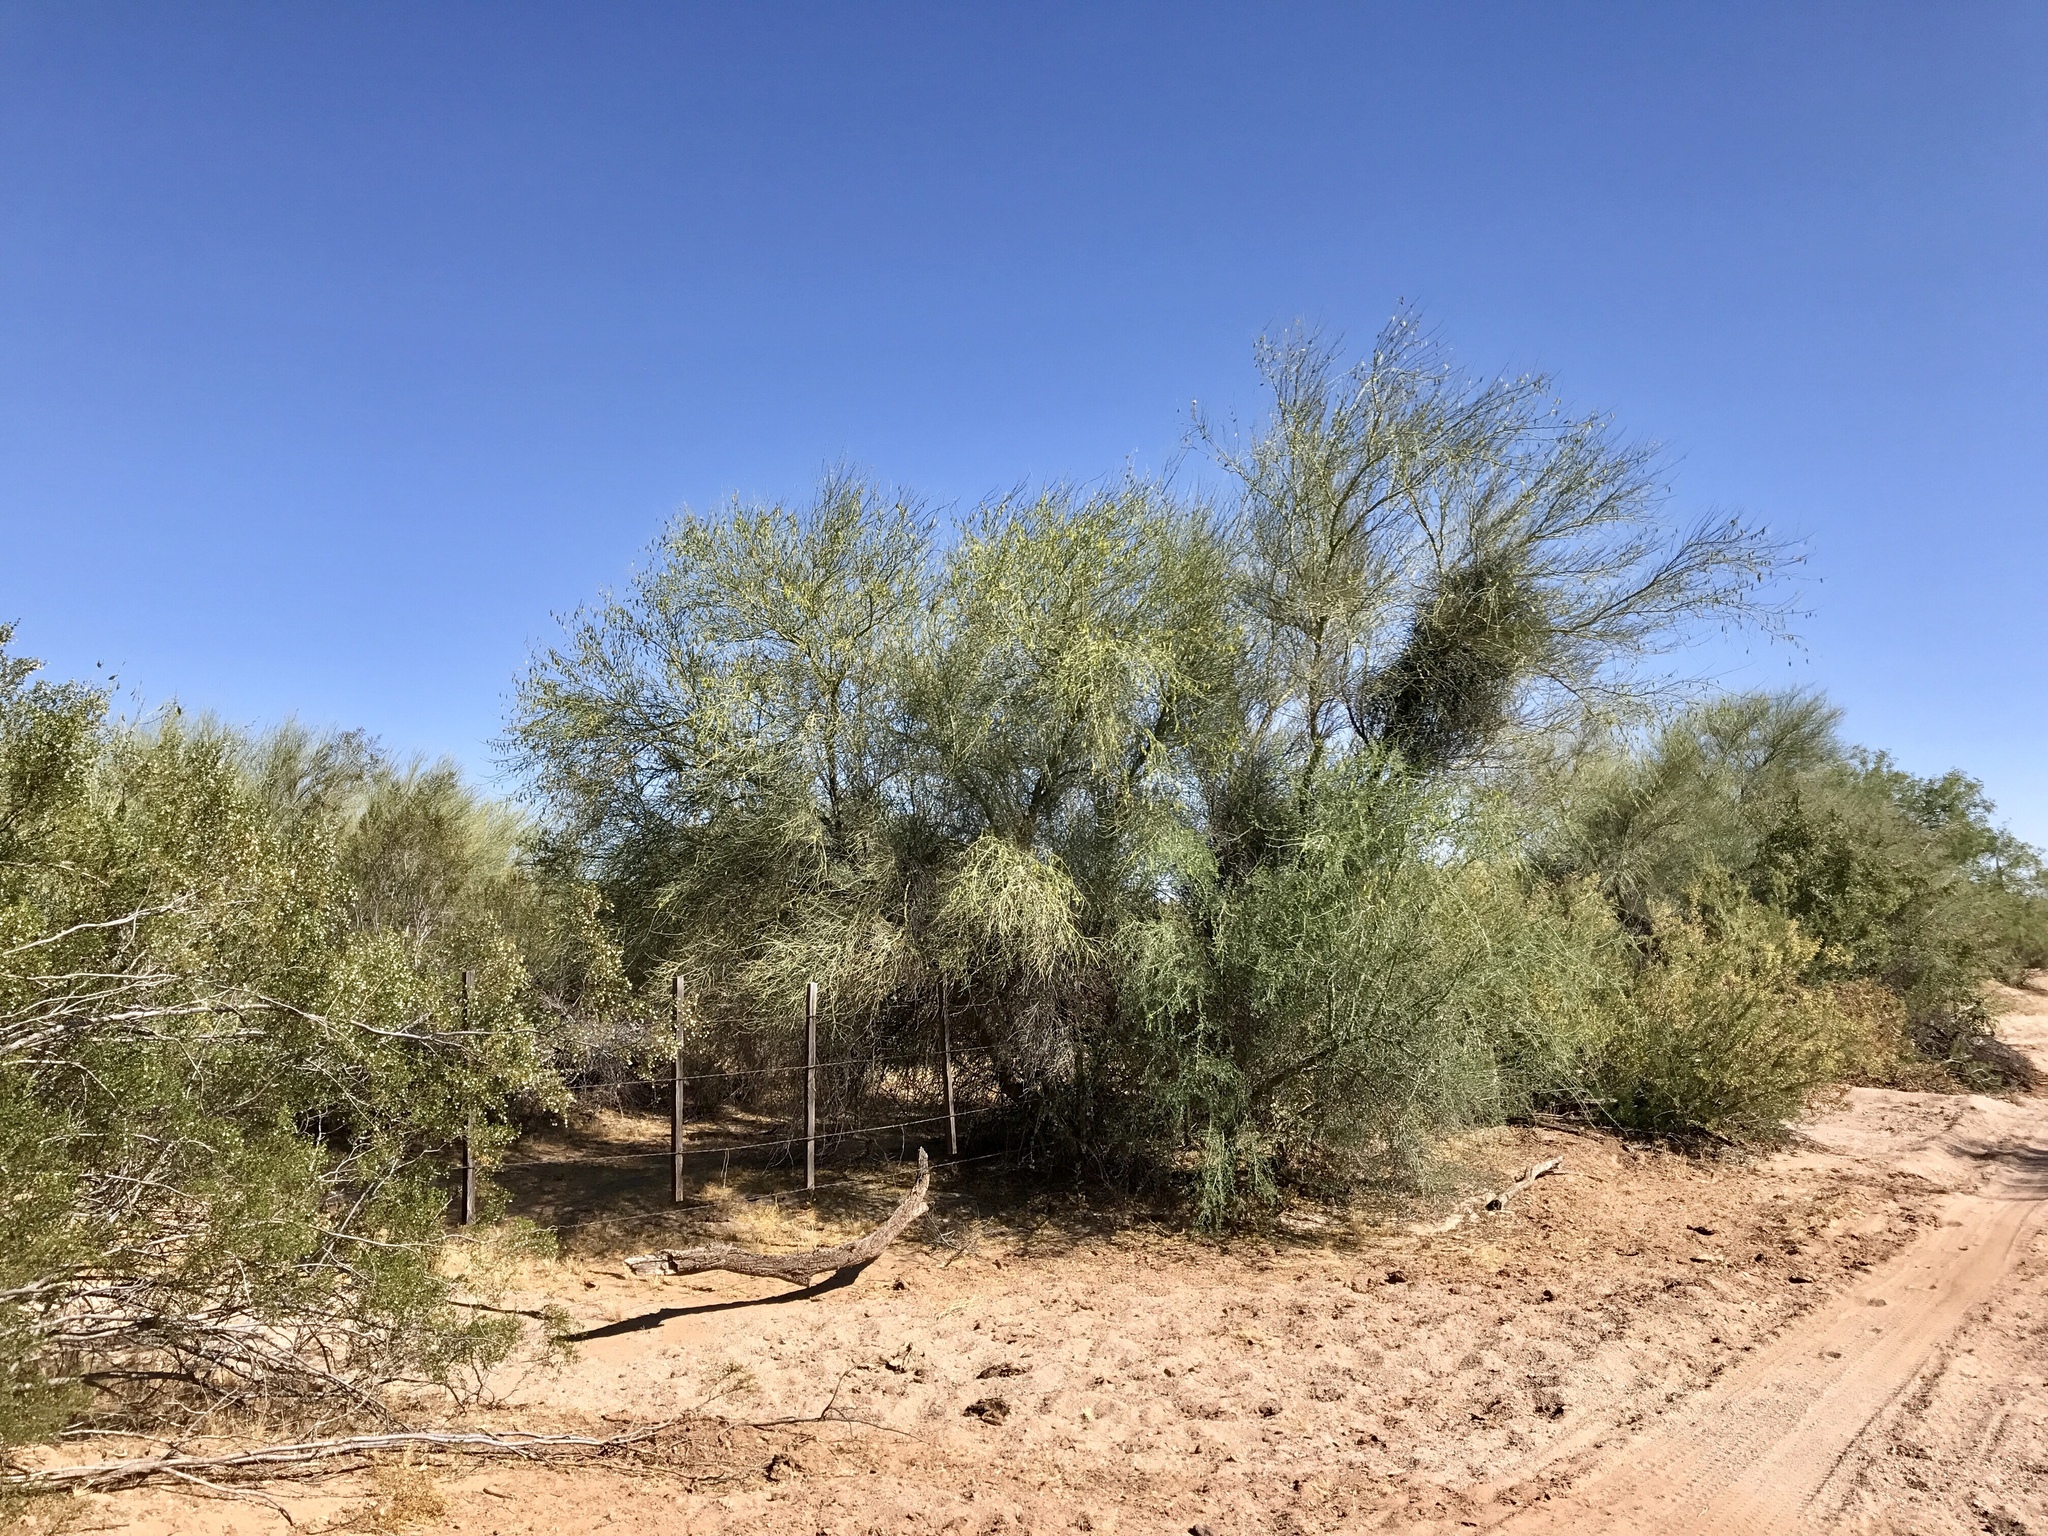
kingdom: Plantae
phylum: Tracheophyta
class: Magnoliopsida
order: Fabales
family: Fabaceae
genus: Parkinsonia
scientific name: Parkinsonia microphylla
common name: Yellow paloverde
